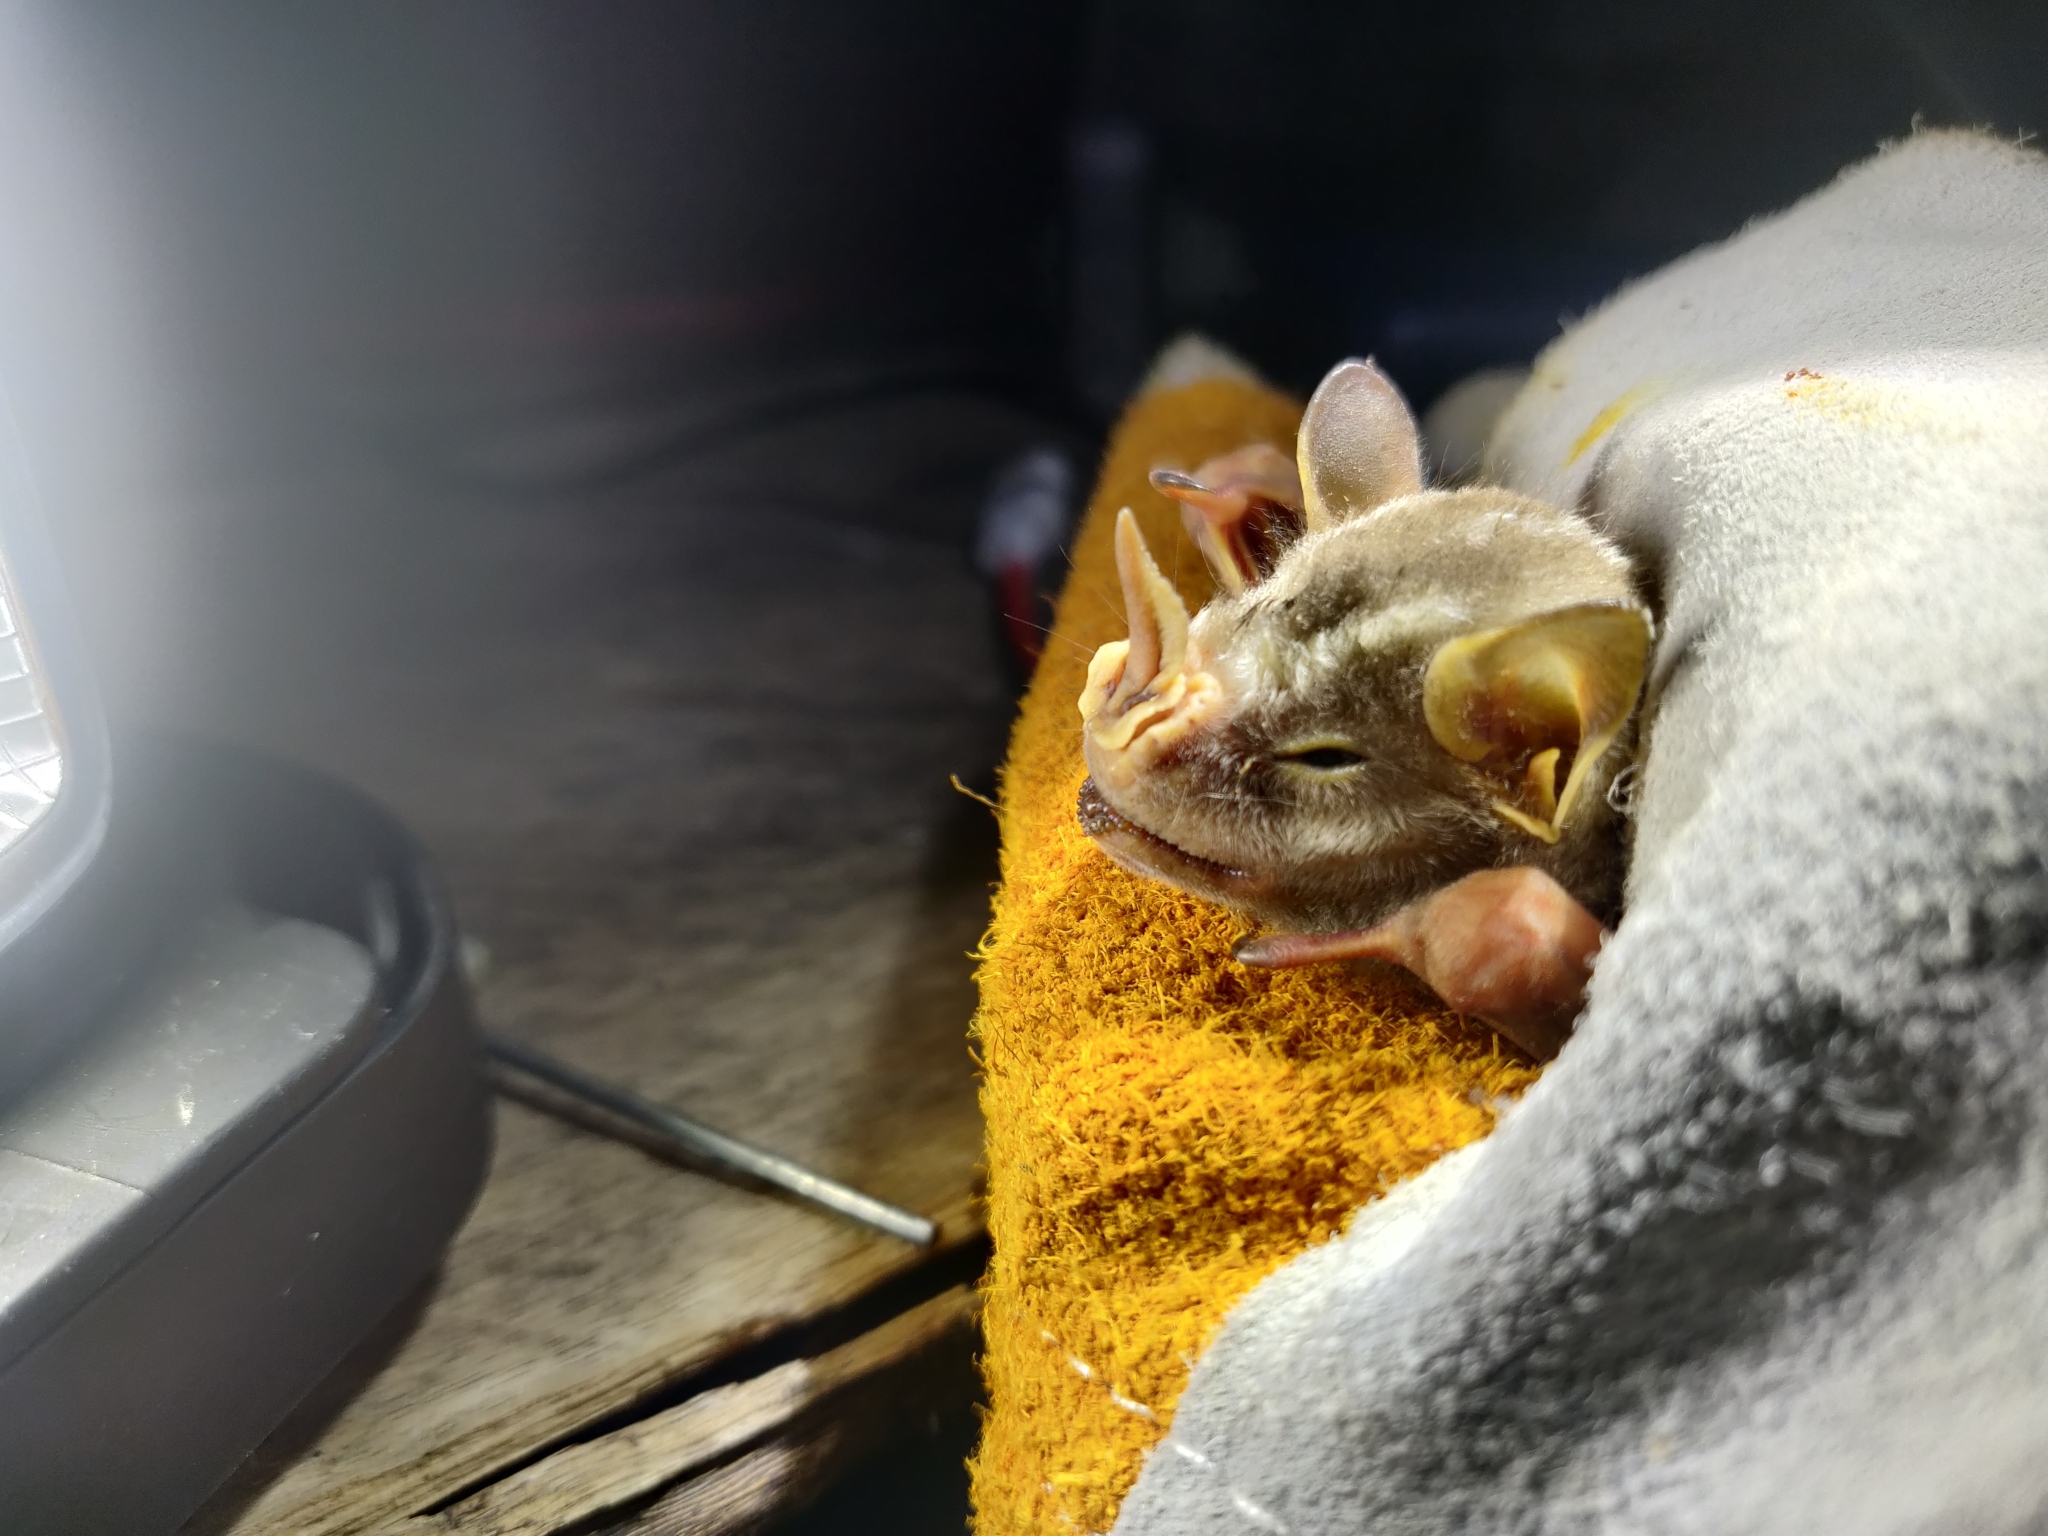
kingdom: Animalia
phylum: Chordata
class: Mammalia
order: Chiroptera
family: Phyllostomidae
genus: Vampyrodes
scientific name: Vampyrodes caraccioli
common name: Great stripe-faced bat
